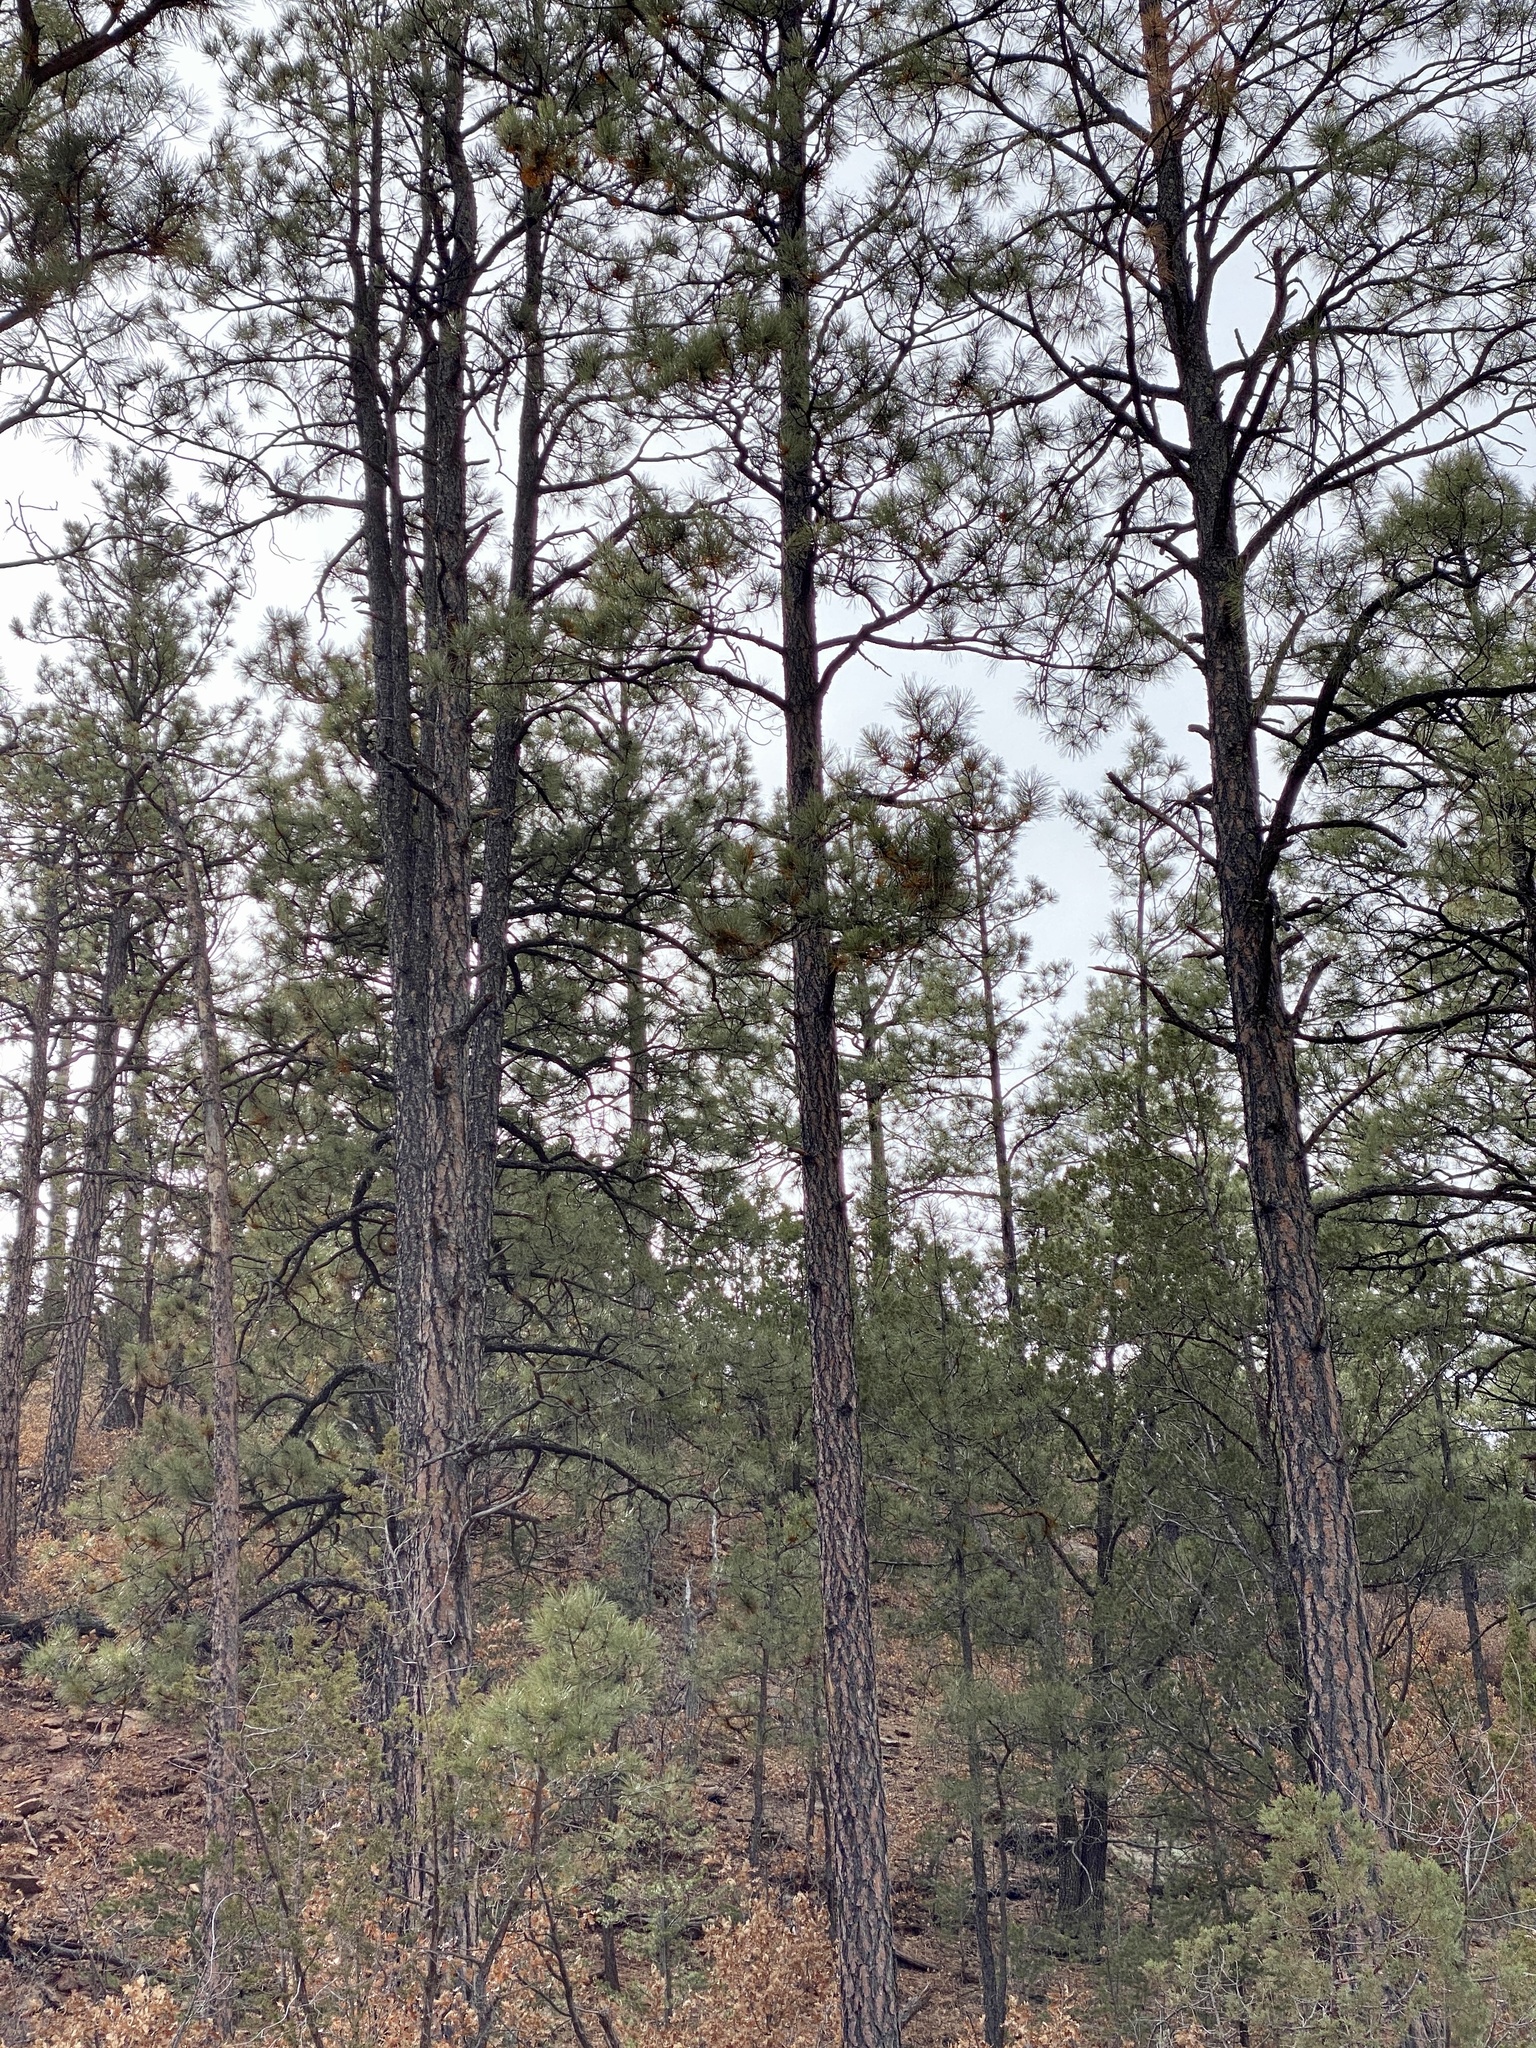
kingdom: Plantae
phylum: Tracheophyta
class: Pinopsida
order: Pinales
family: Pinaceae
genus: Pinus
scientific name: Pinus ponderosa
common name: Western yellow-pine
